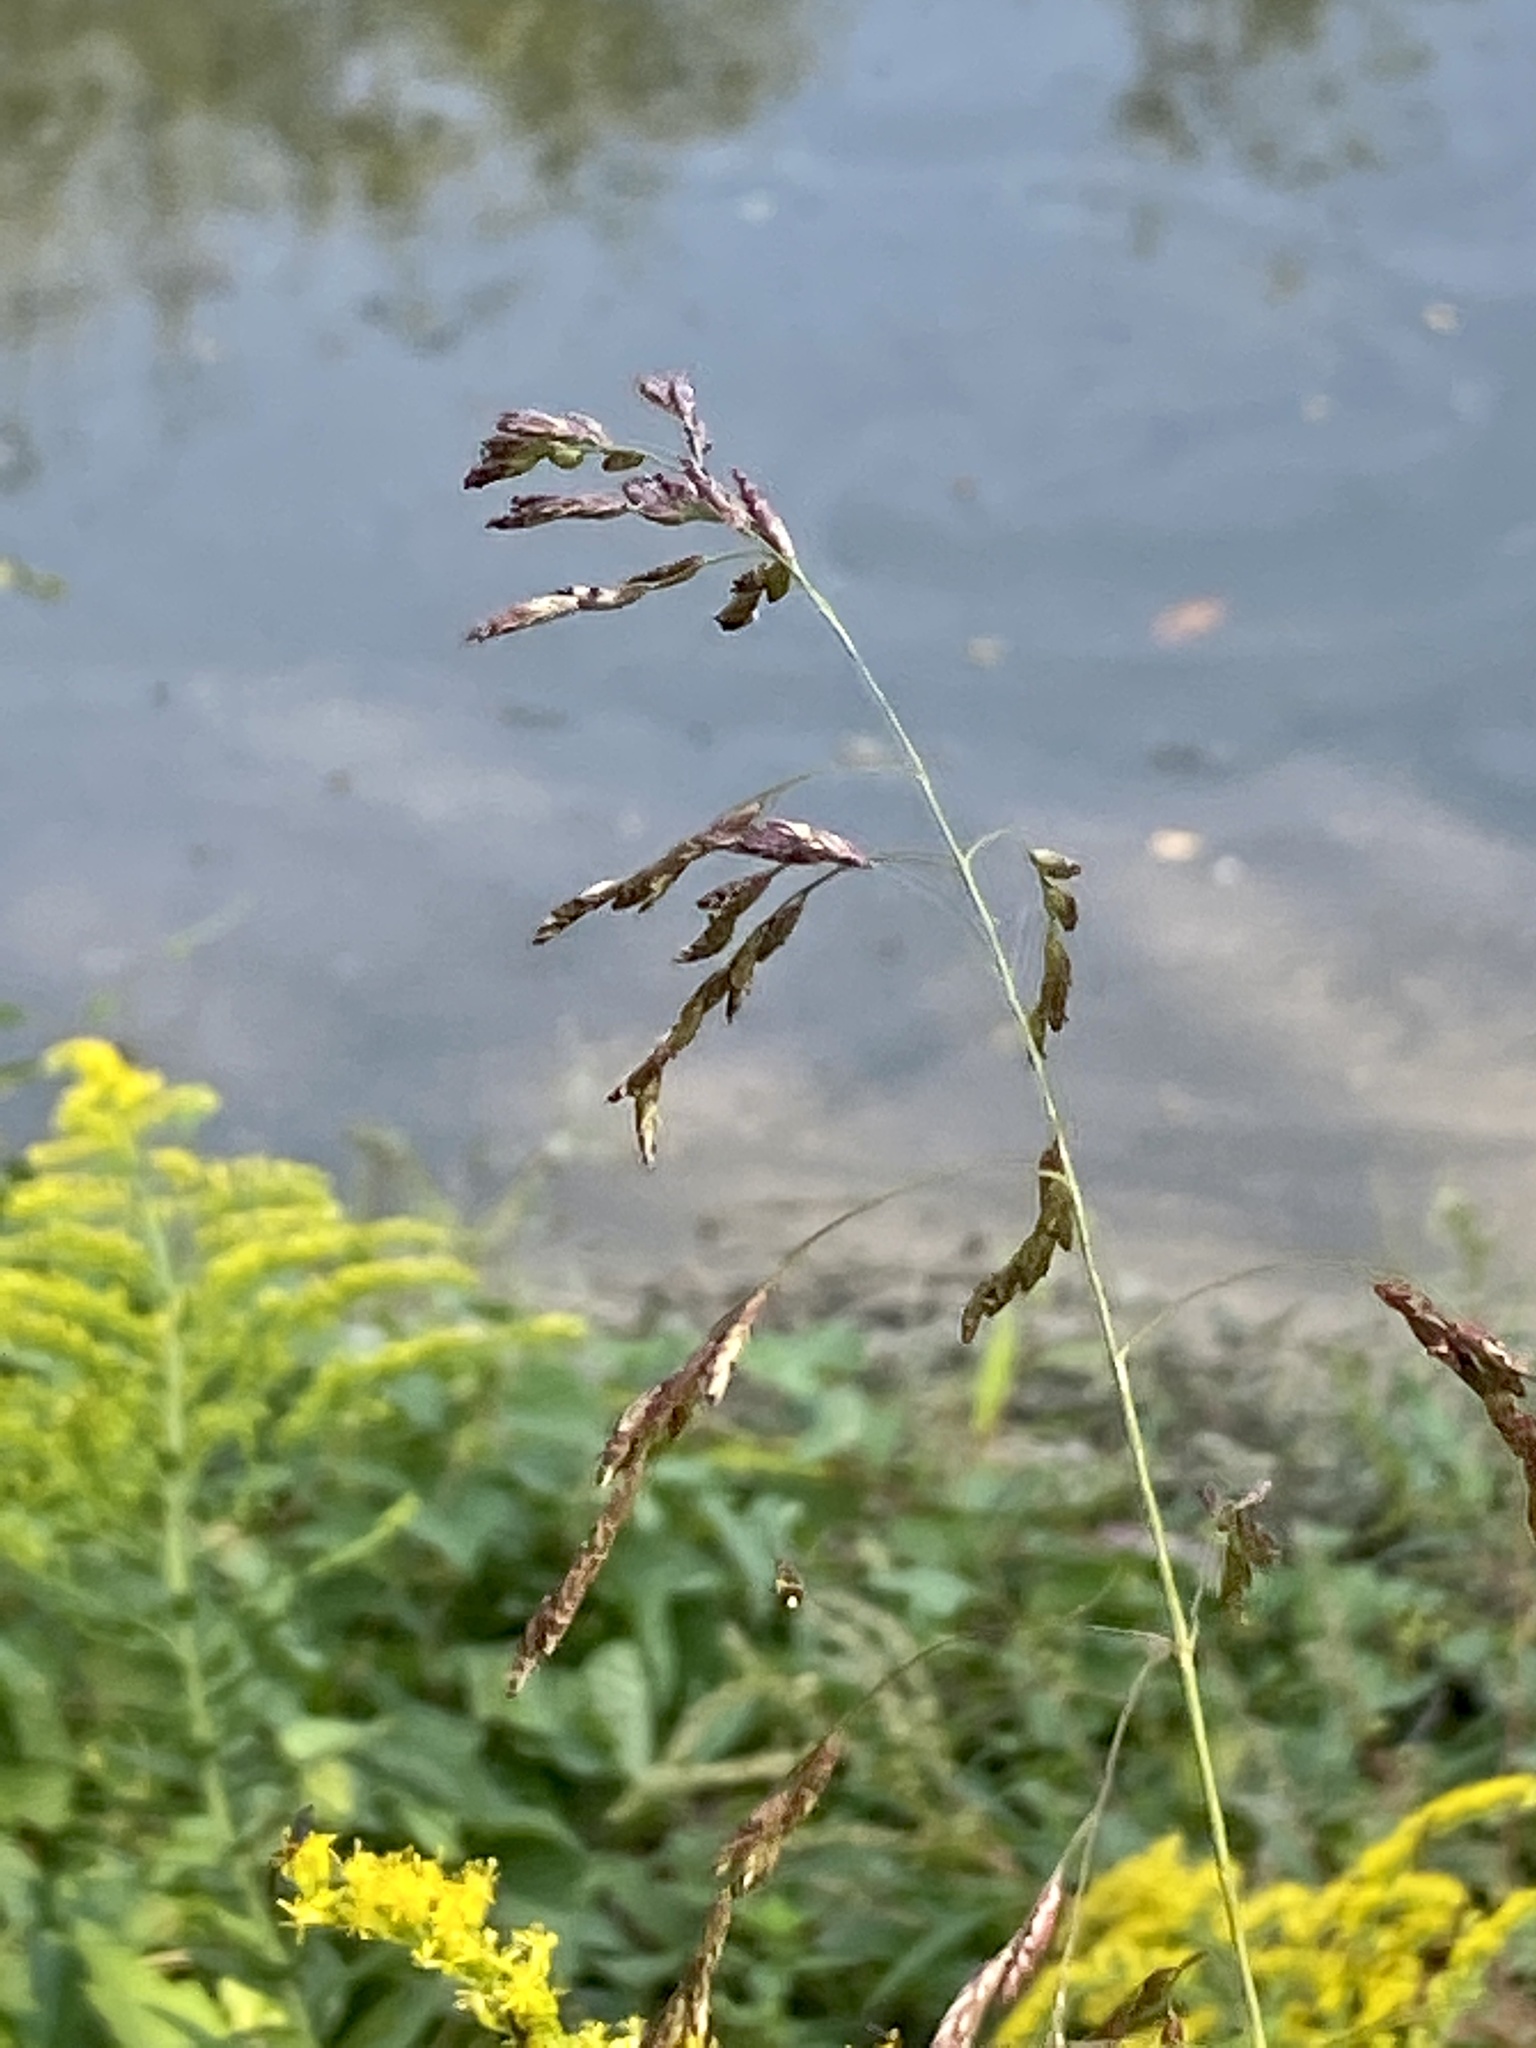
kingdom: Plantae
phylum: Tracheophyta
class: Liliopsida
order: Poales
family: Poaceae
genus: Tridens
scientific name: Tridens flavus
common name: Purpletop
